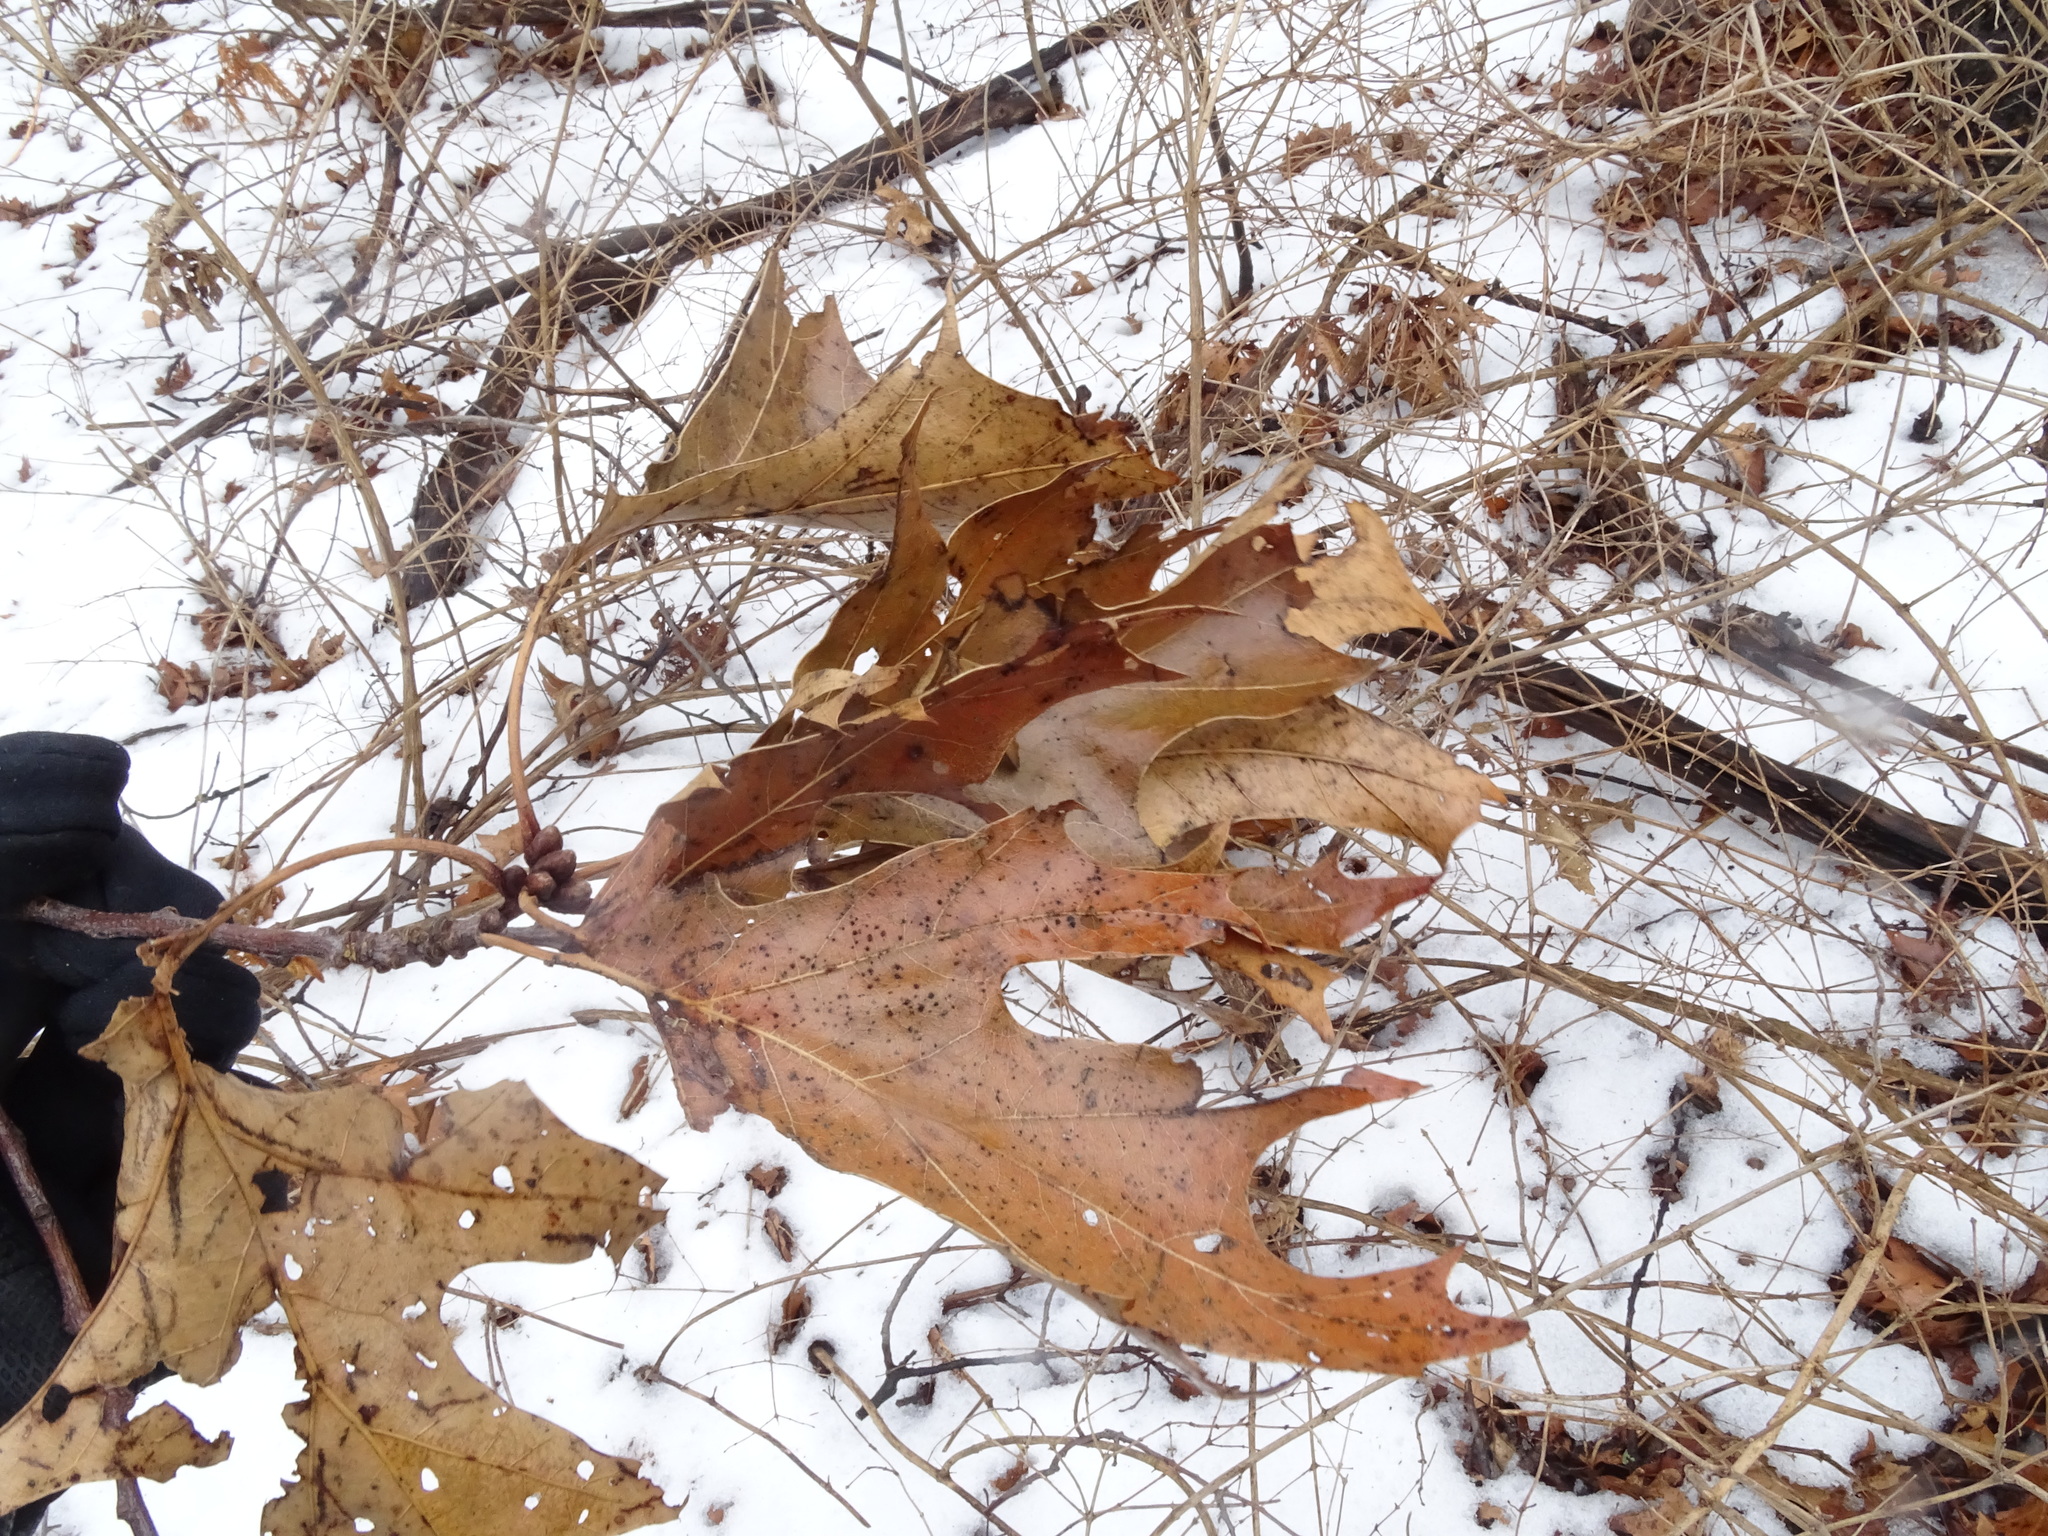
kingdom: Plantae
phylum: Tracheophyta
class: Magnoliopsida
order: Fagales
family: Fagaceae
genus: Quercus
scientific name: Quercus velutina
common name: Black oak
